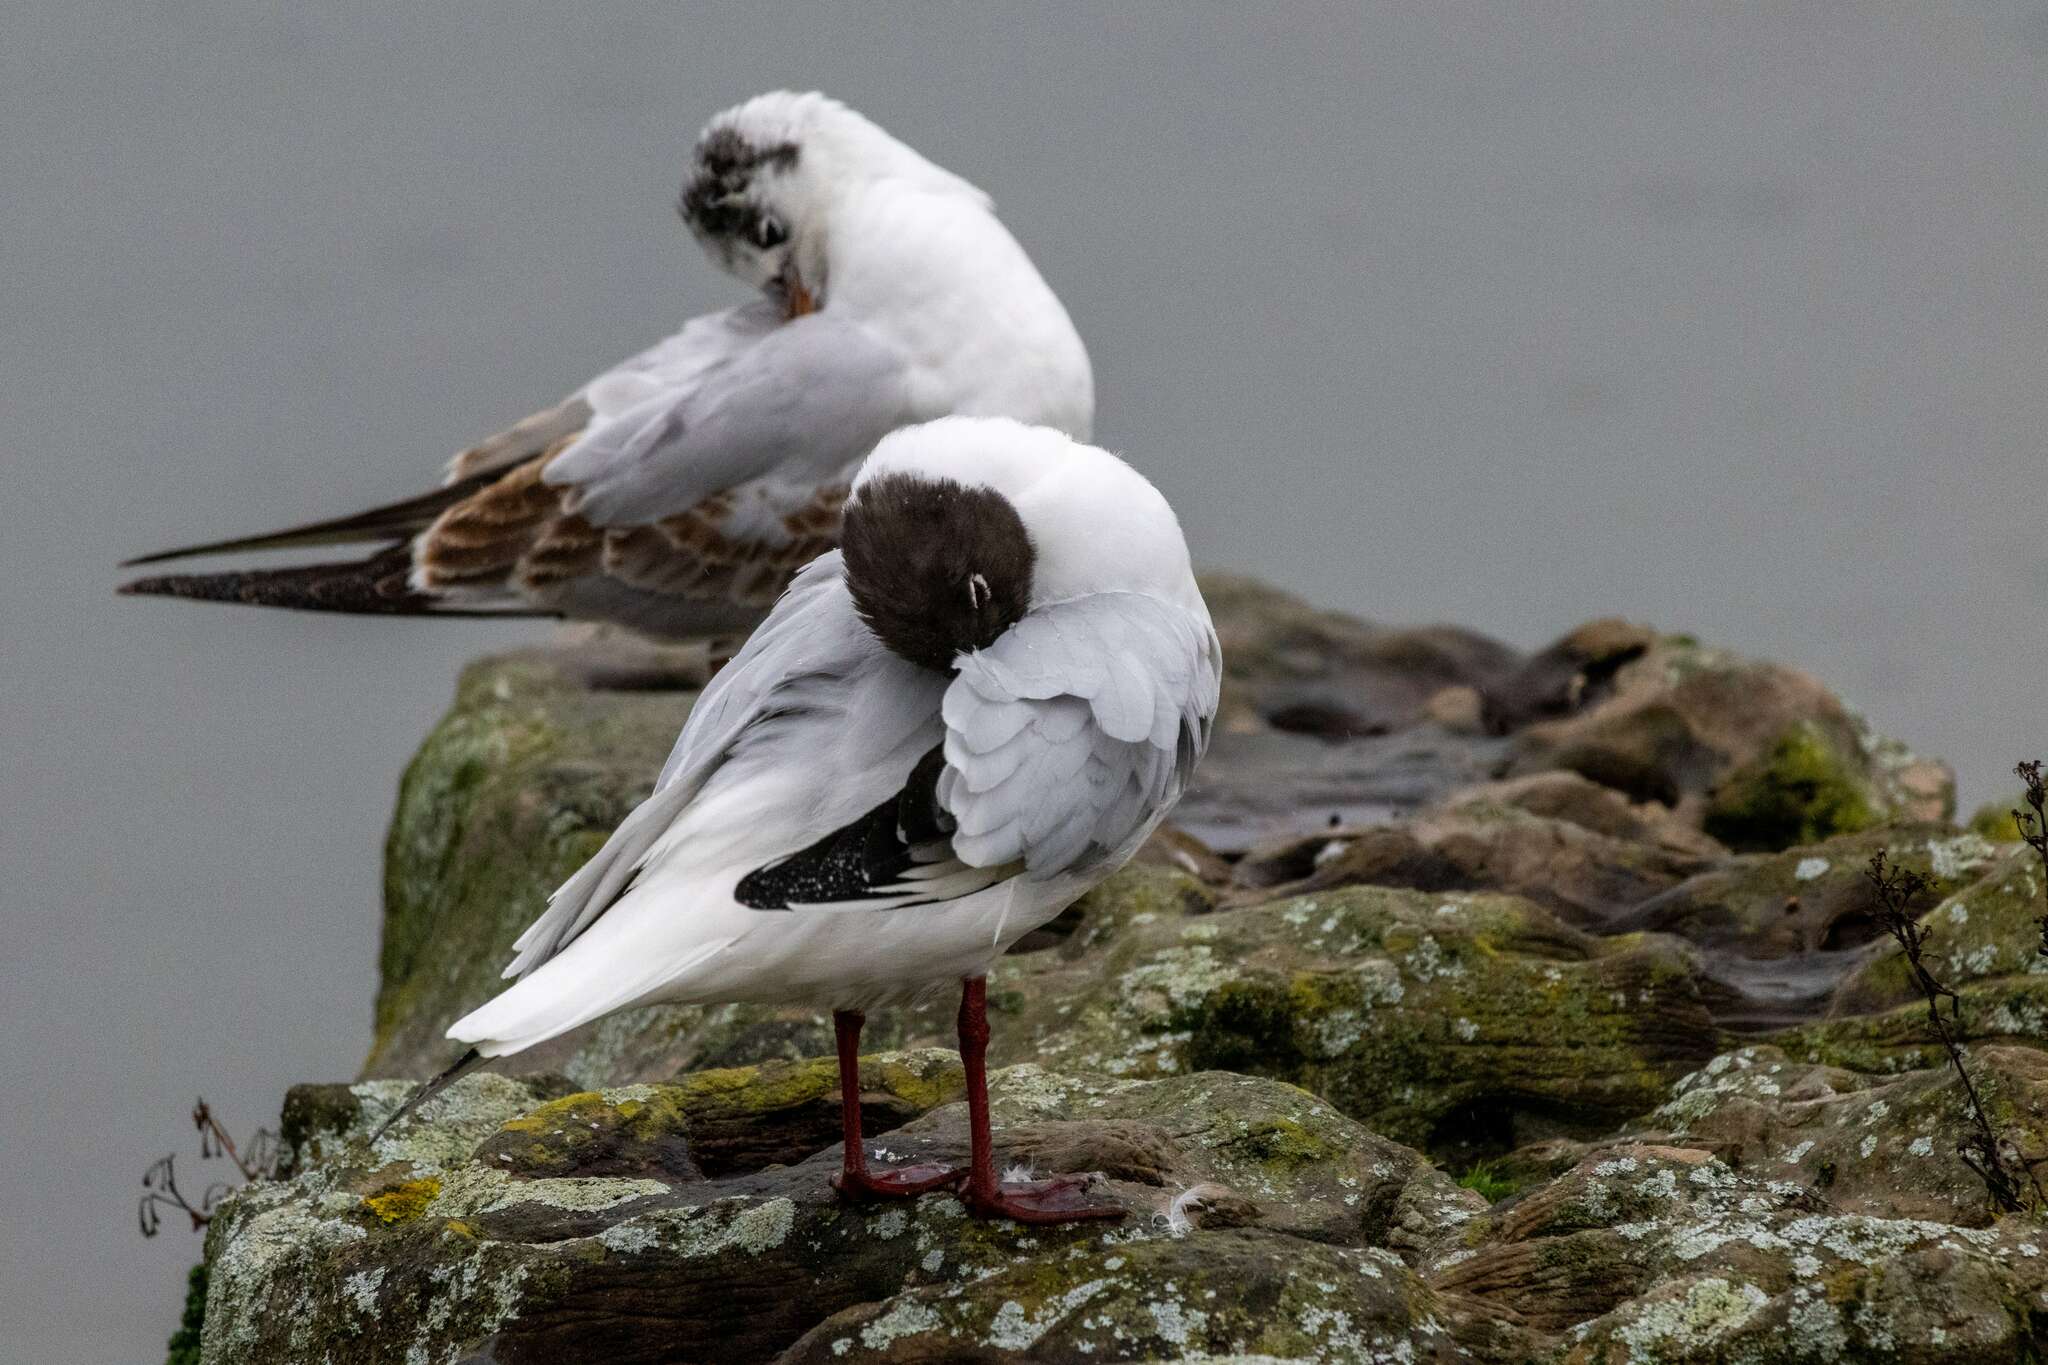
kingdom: Animalia
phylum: Chordata
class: Aves
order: Charadriiformes
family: Laridae
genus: Chroicocephalus
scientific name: Chroicocephalus ridibundus
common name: Black-headed gull
